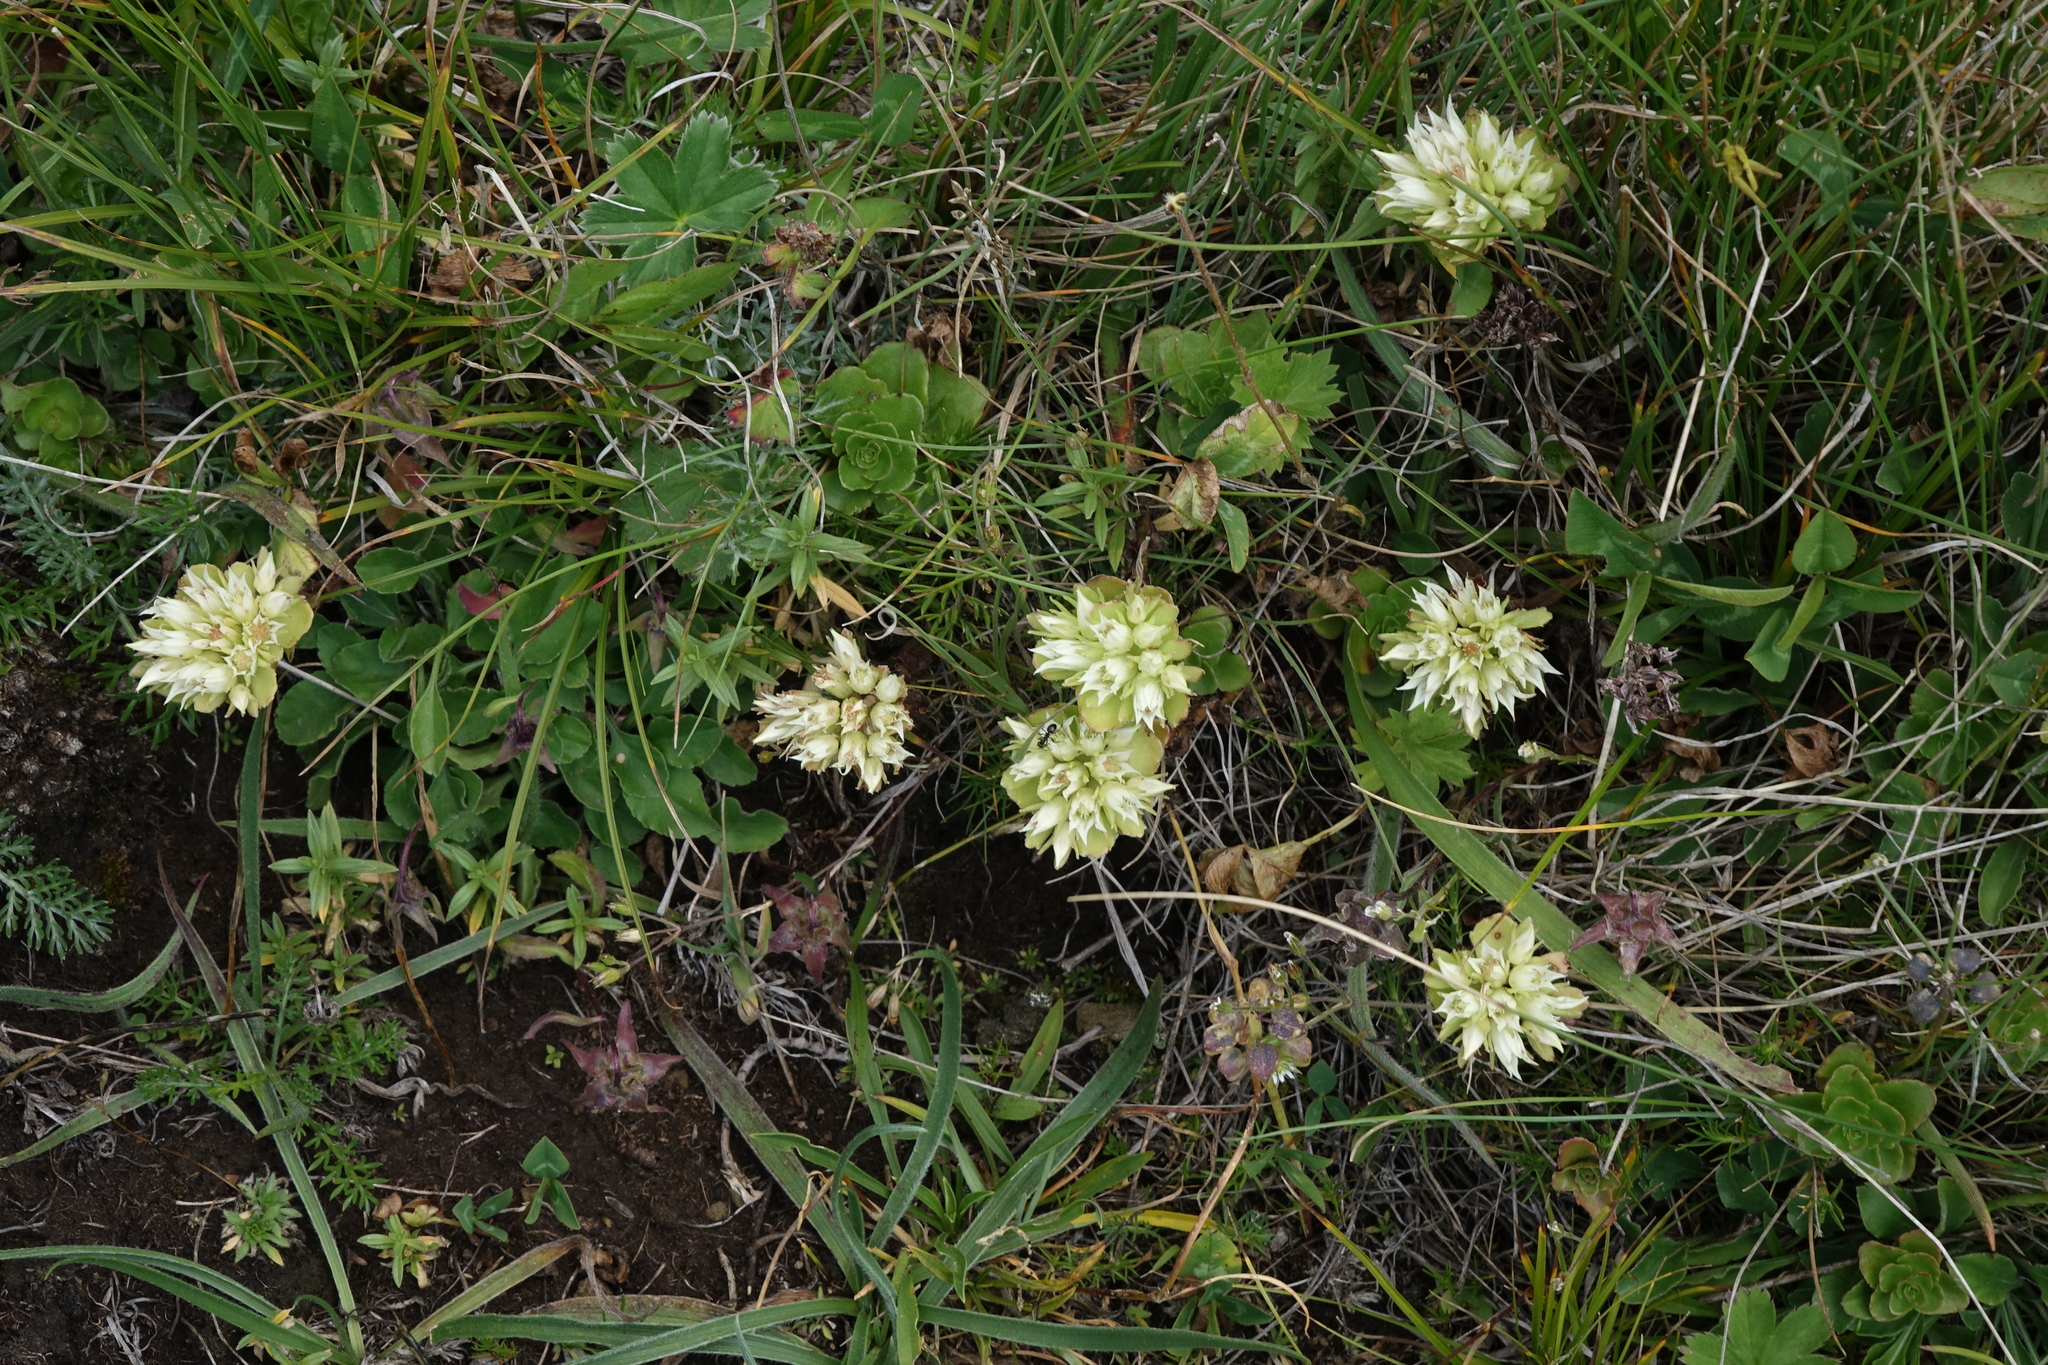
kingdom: Plantae
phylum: Tracheophyta
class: Magnoliopsida
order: Saxifragales
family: Crassulaceae
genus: Phedimus
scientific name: Phedimus spurius
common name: Caucasian stonecrop
